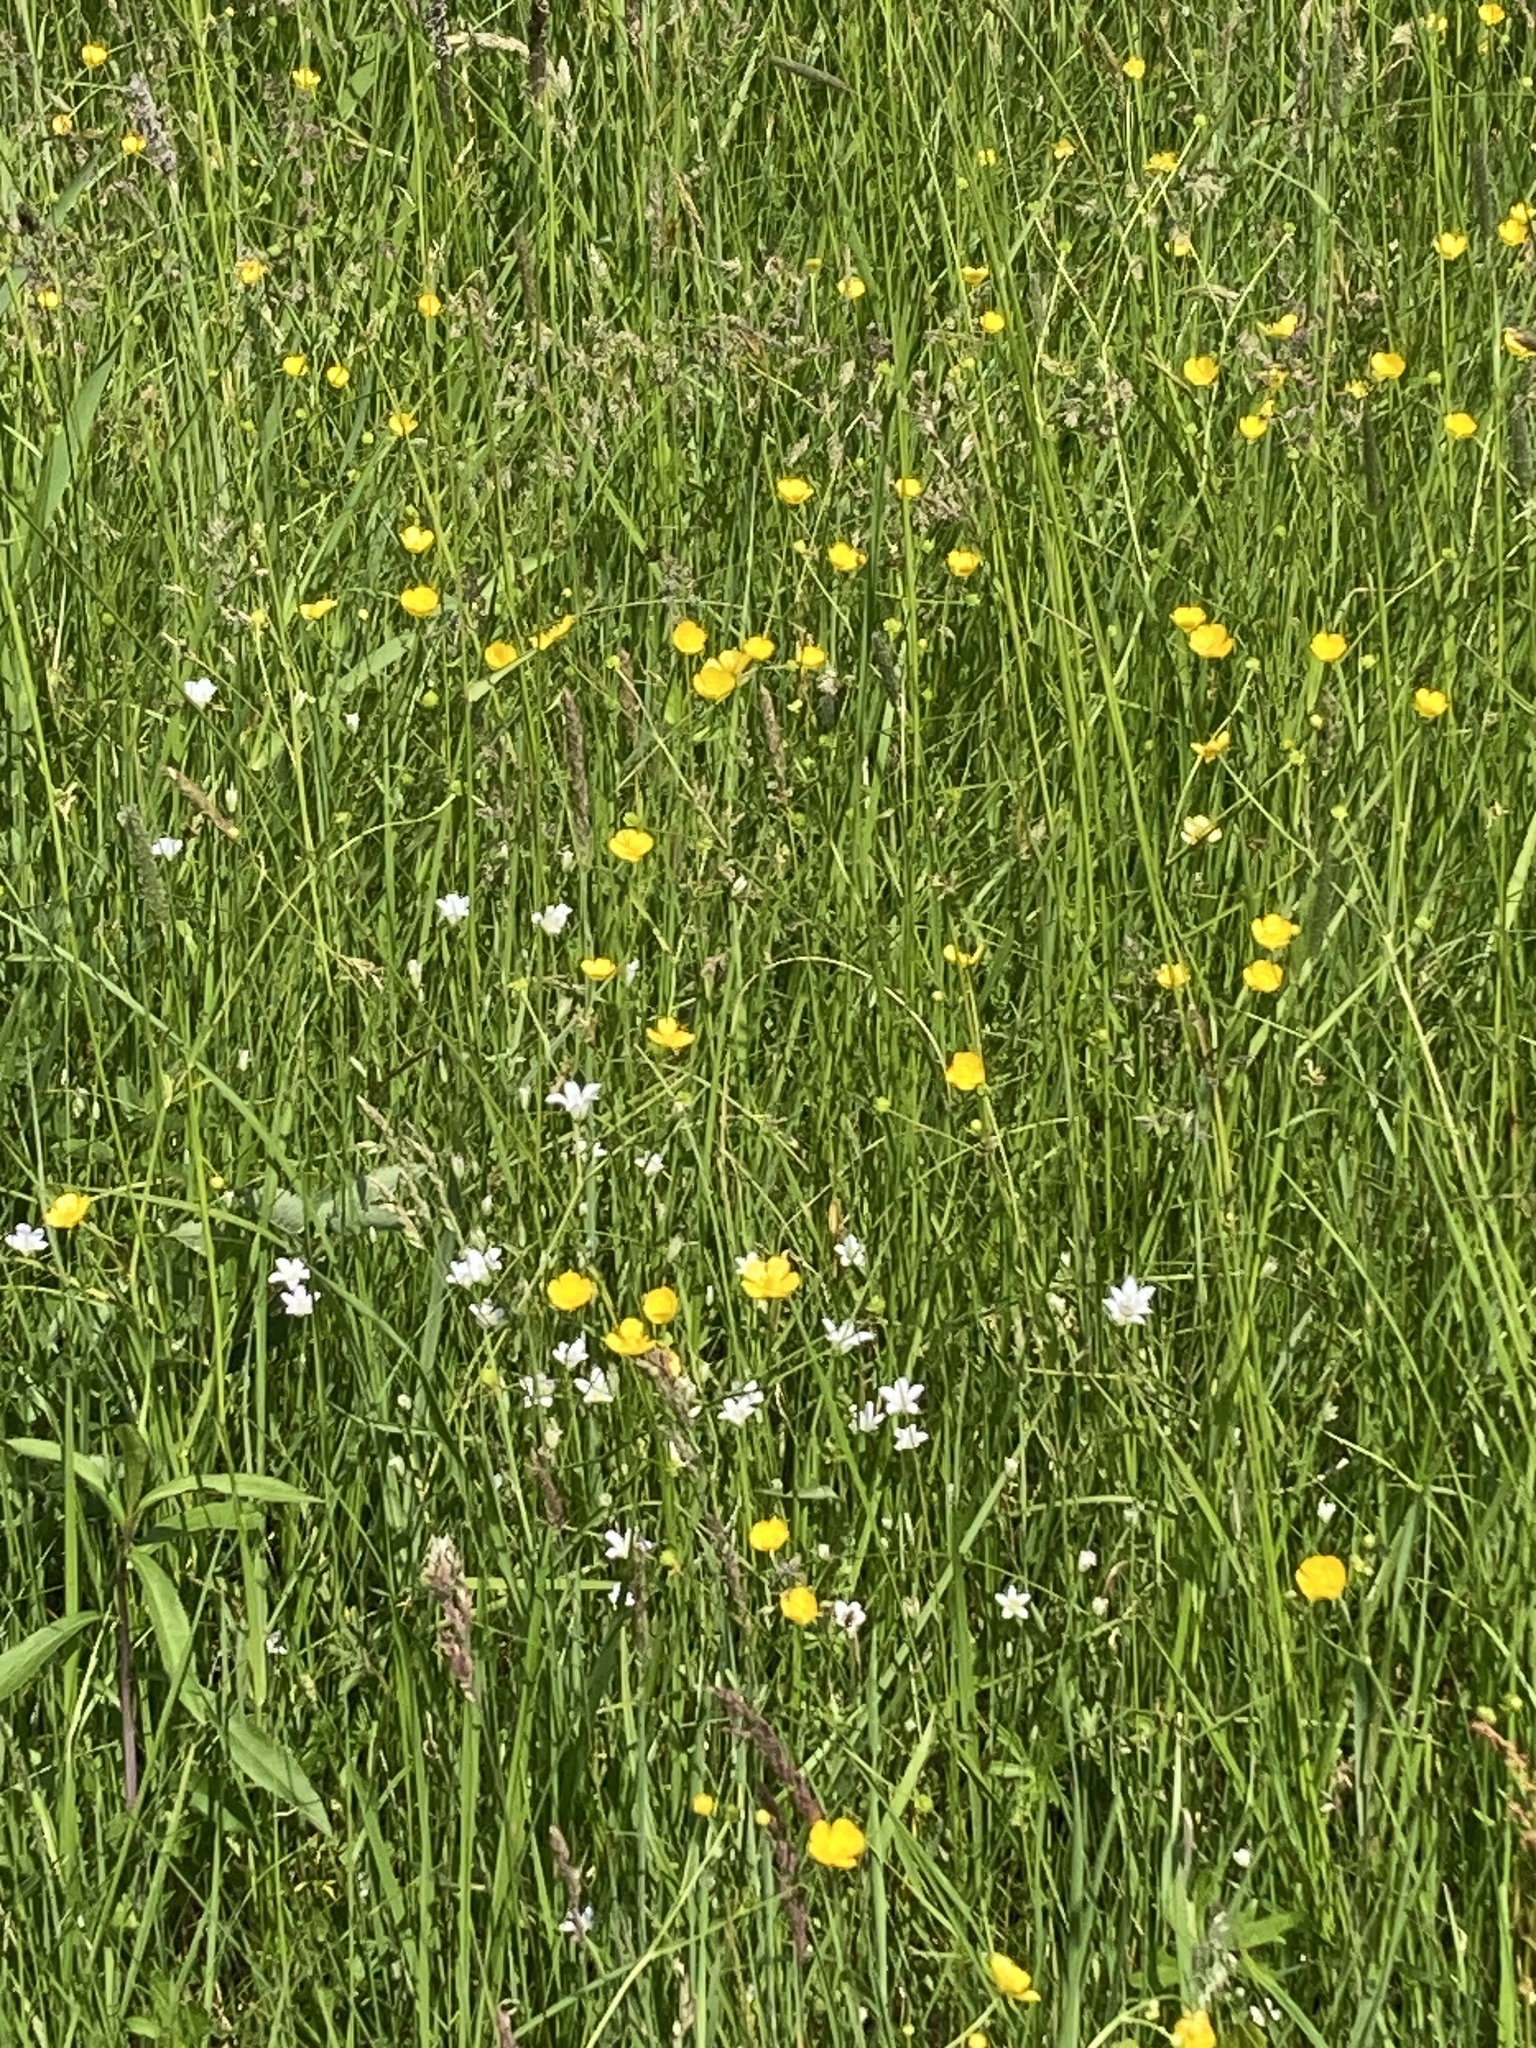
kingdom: Plantae
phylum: Tracheophyta
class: Magnoliopsida
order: Caryophyllales
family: Caryophyllaceae
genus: Moenchia
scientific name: Moenchia mantica
